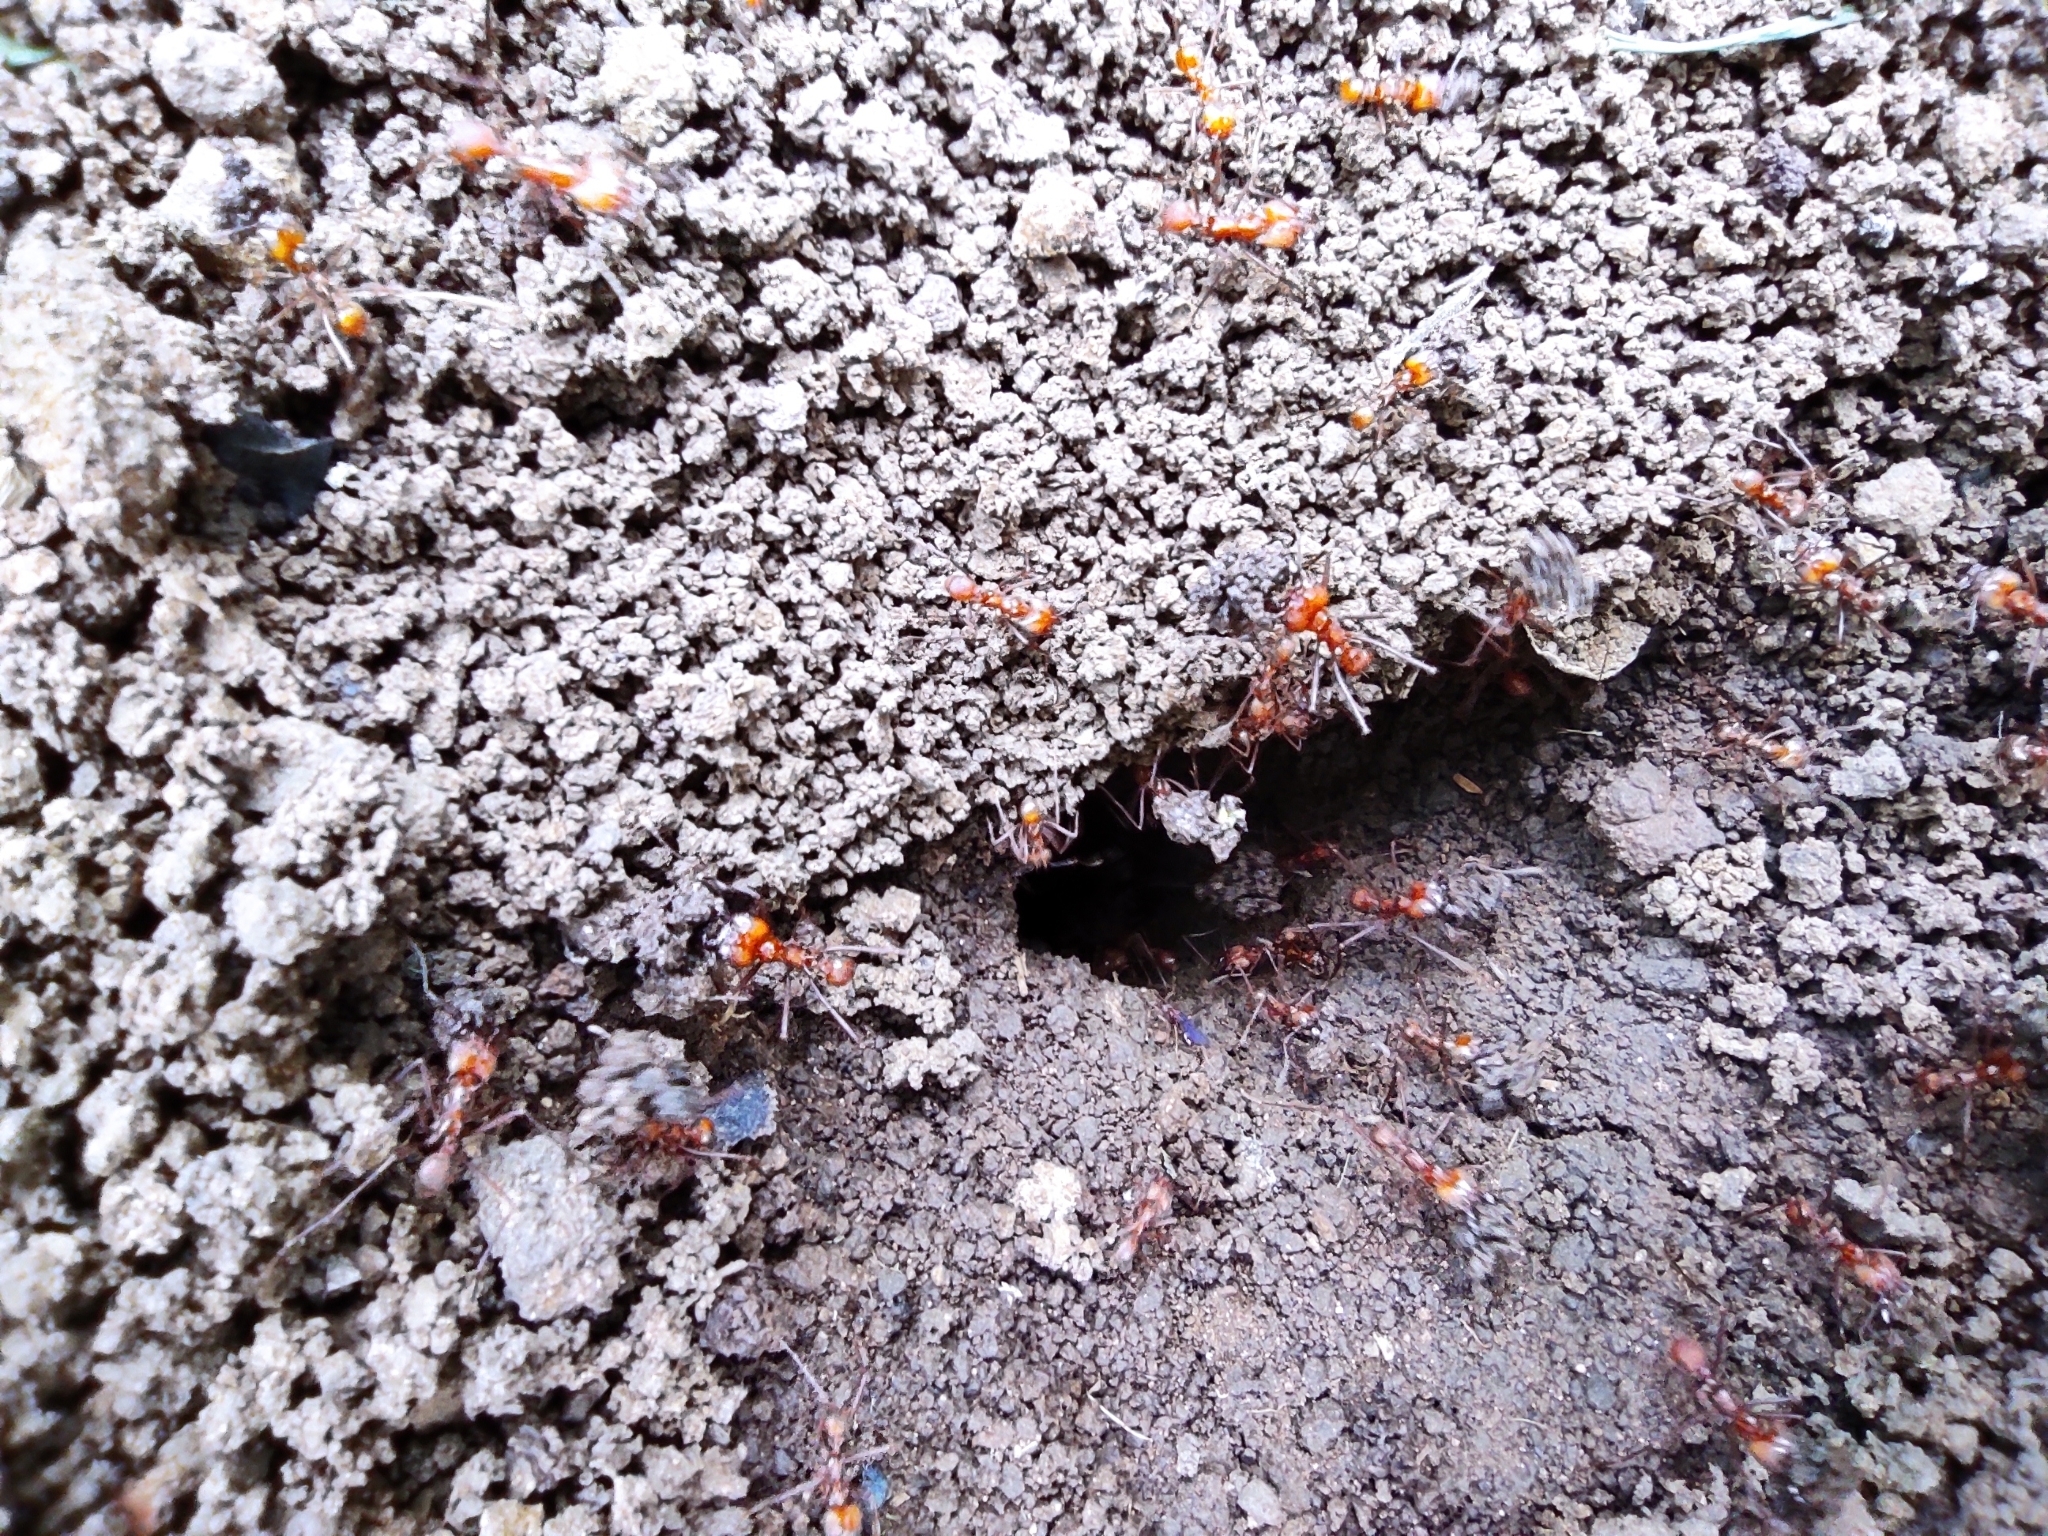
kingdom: Animalia
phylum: Arthropoda
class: Insecta
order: Hymenoptera
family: Formicidae
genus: Atta
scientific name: Atta cephalotes
